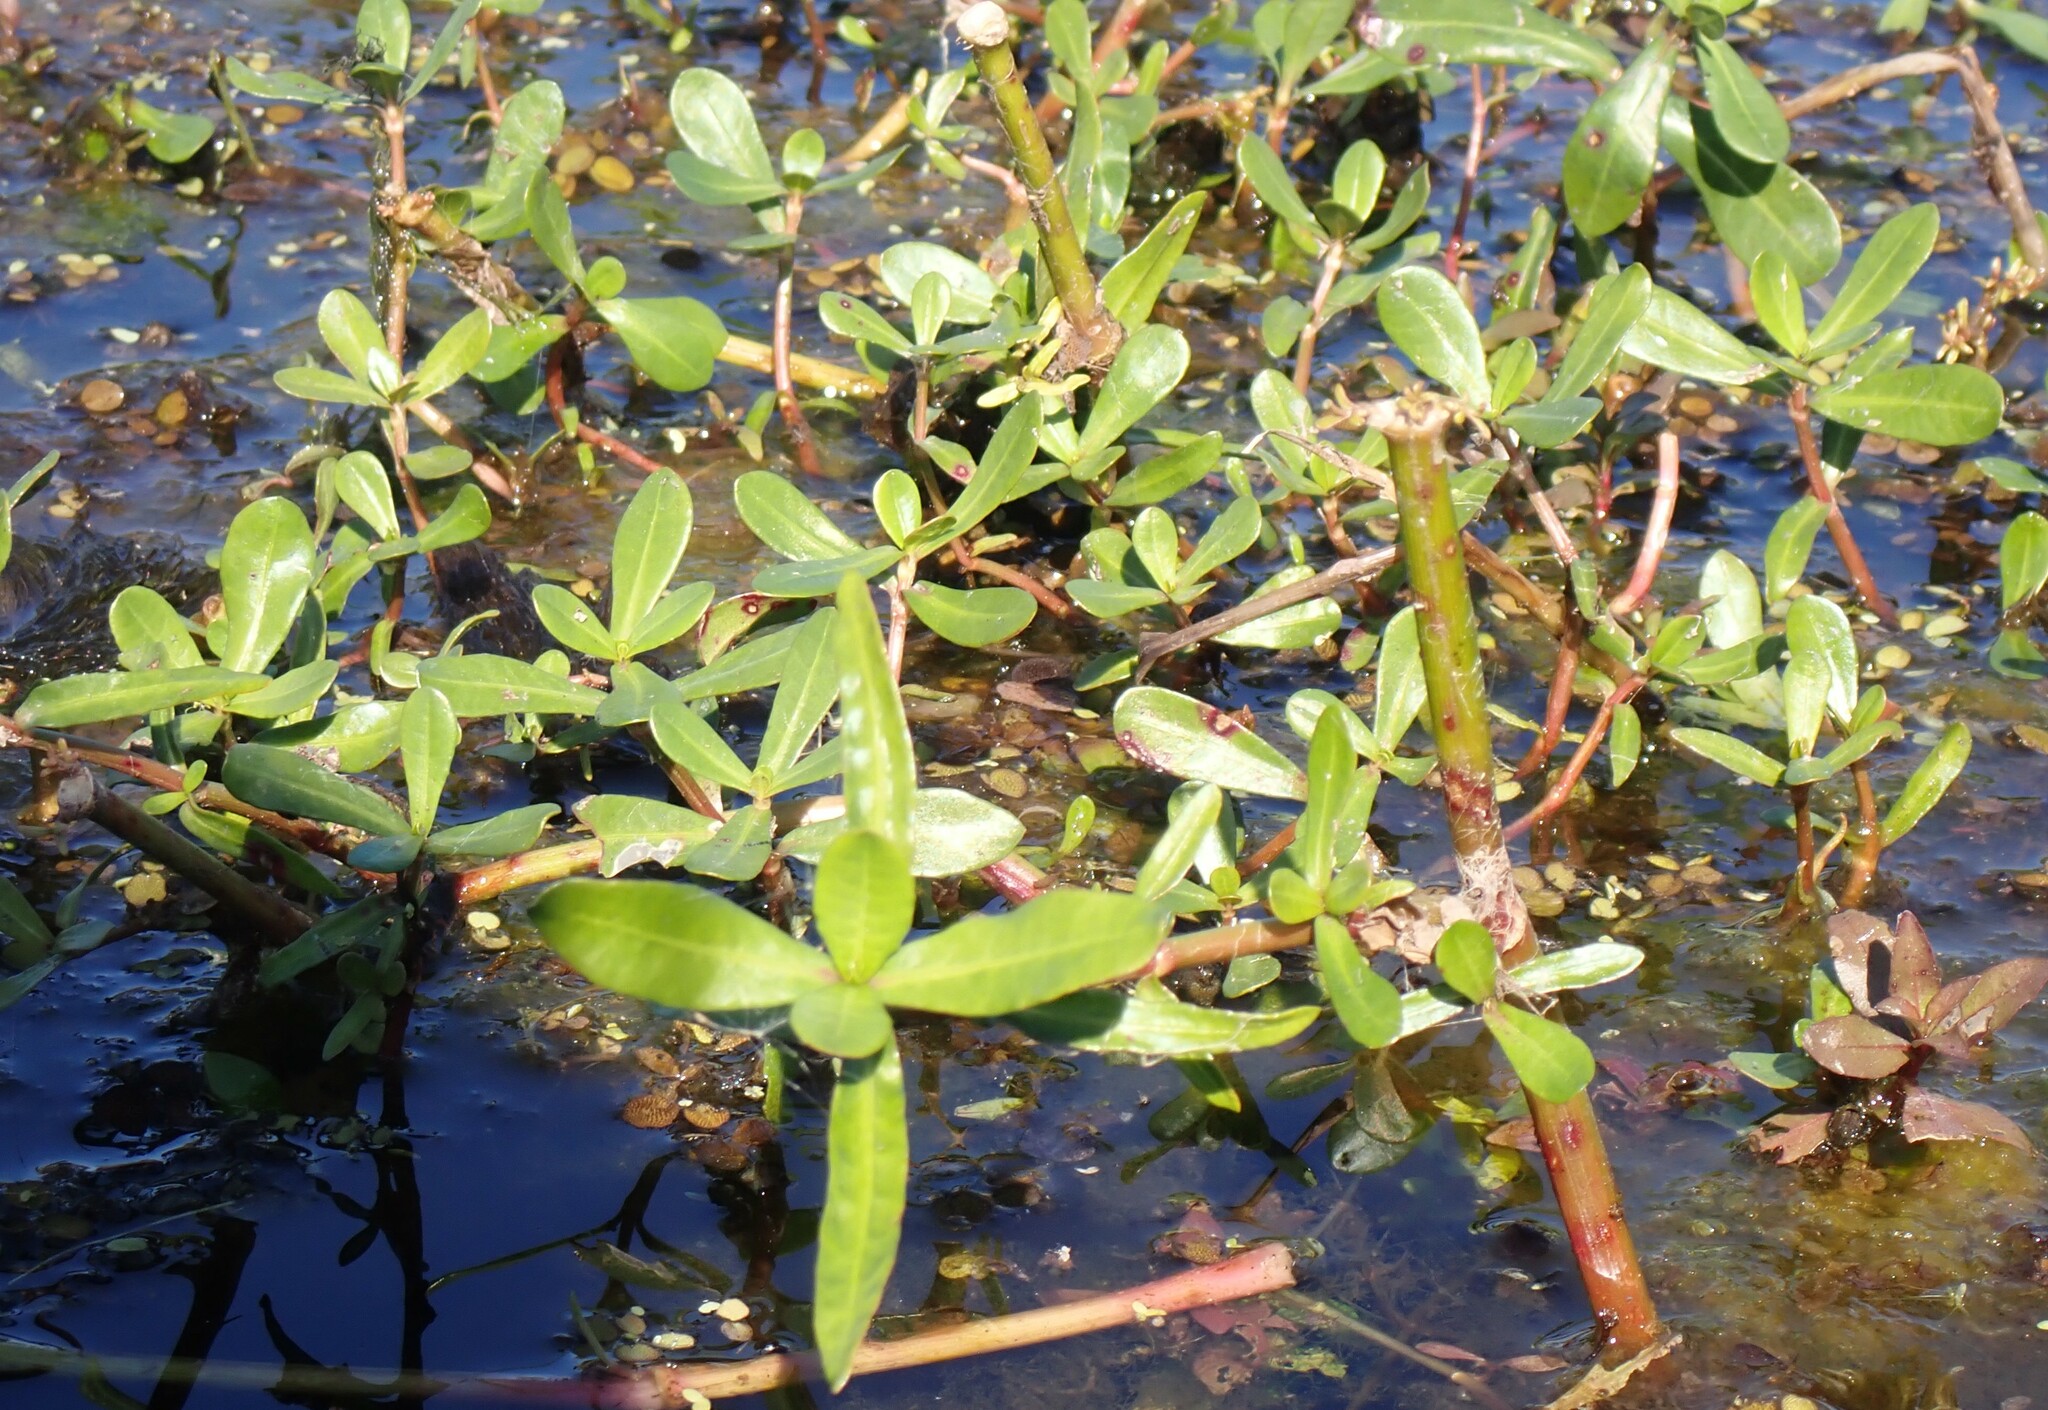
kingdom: Plantae
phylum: Tracheophyta
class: Magnoliopsida
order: Caryophyllales
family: Amaranthaceae
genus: Alternanthera
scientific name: Alternanthera philoxeroides
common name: Alligatorweed
